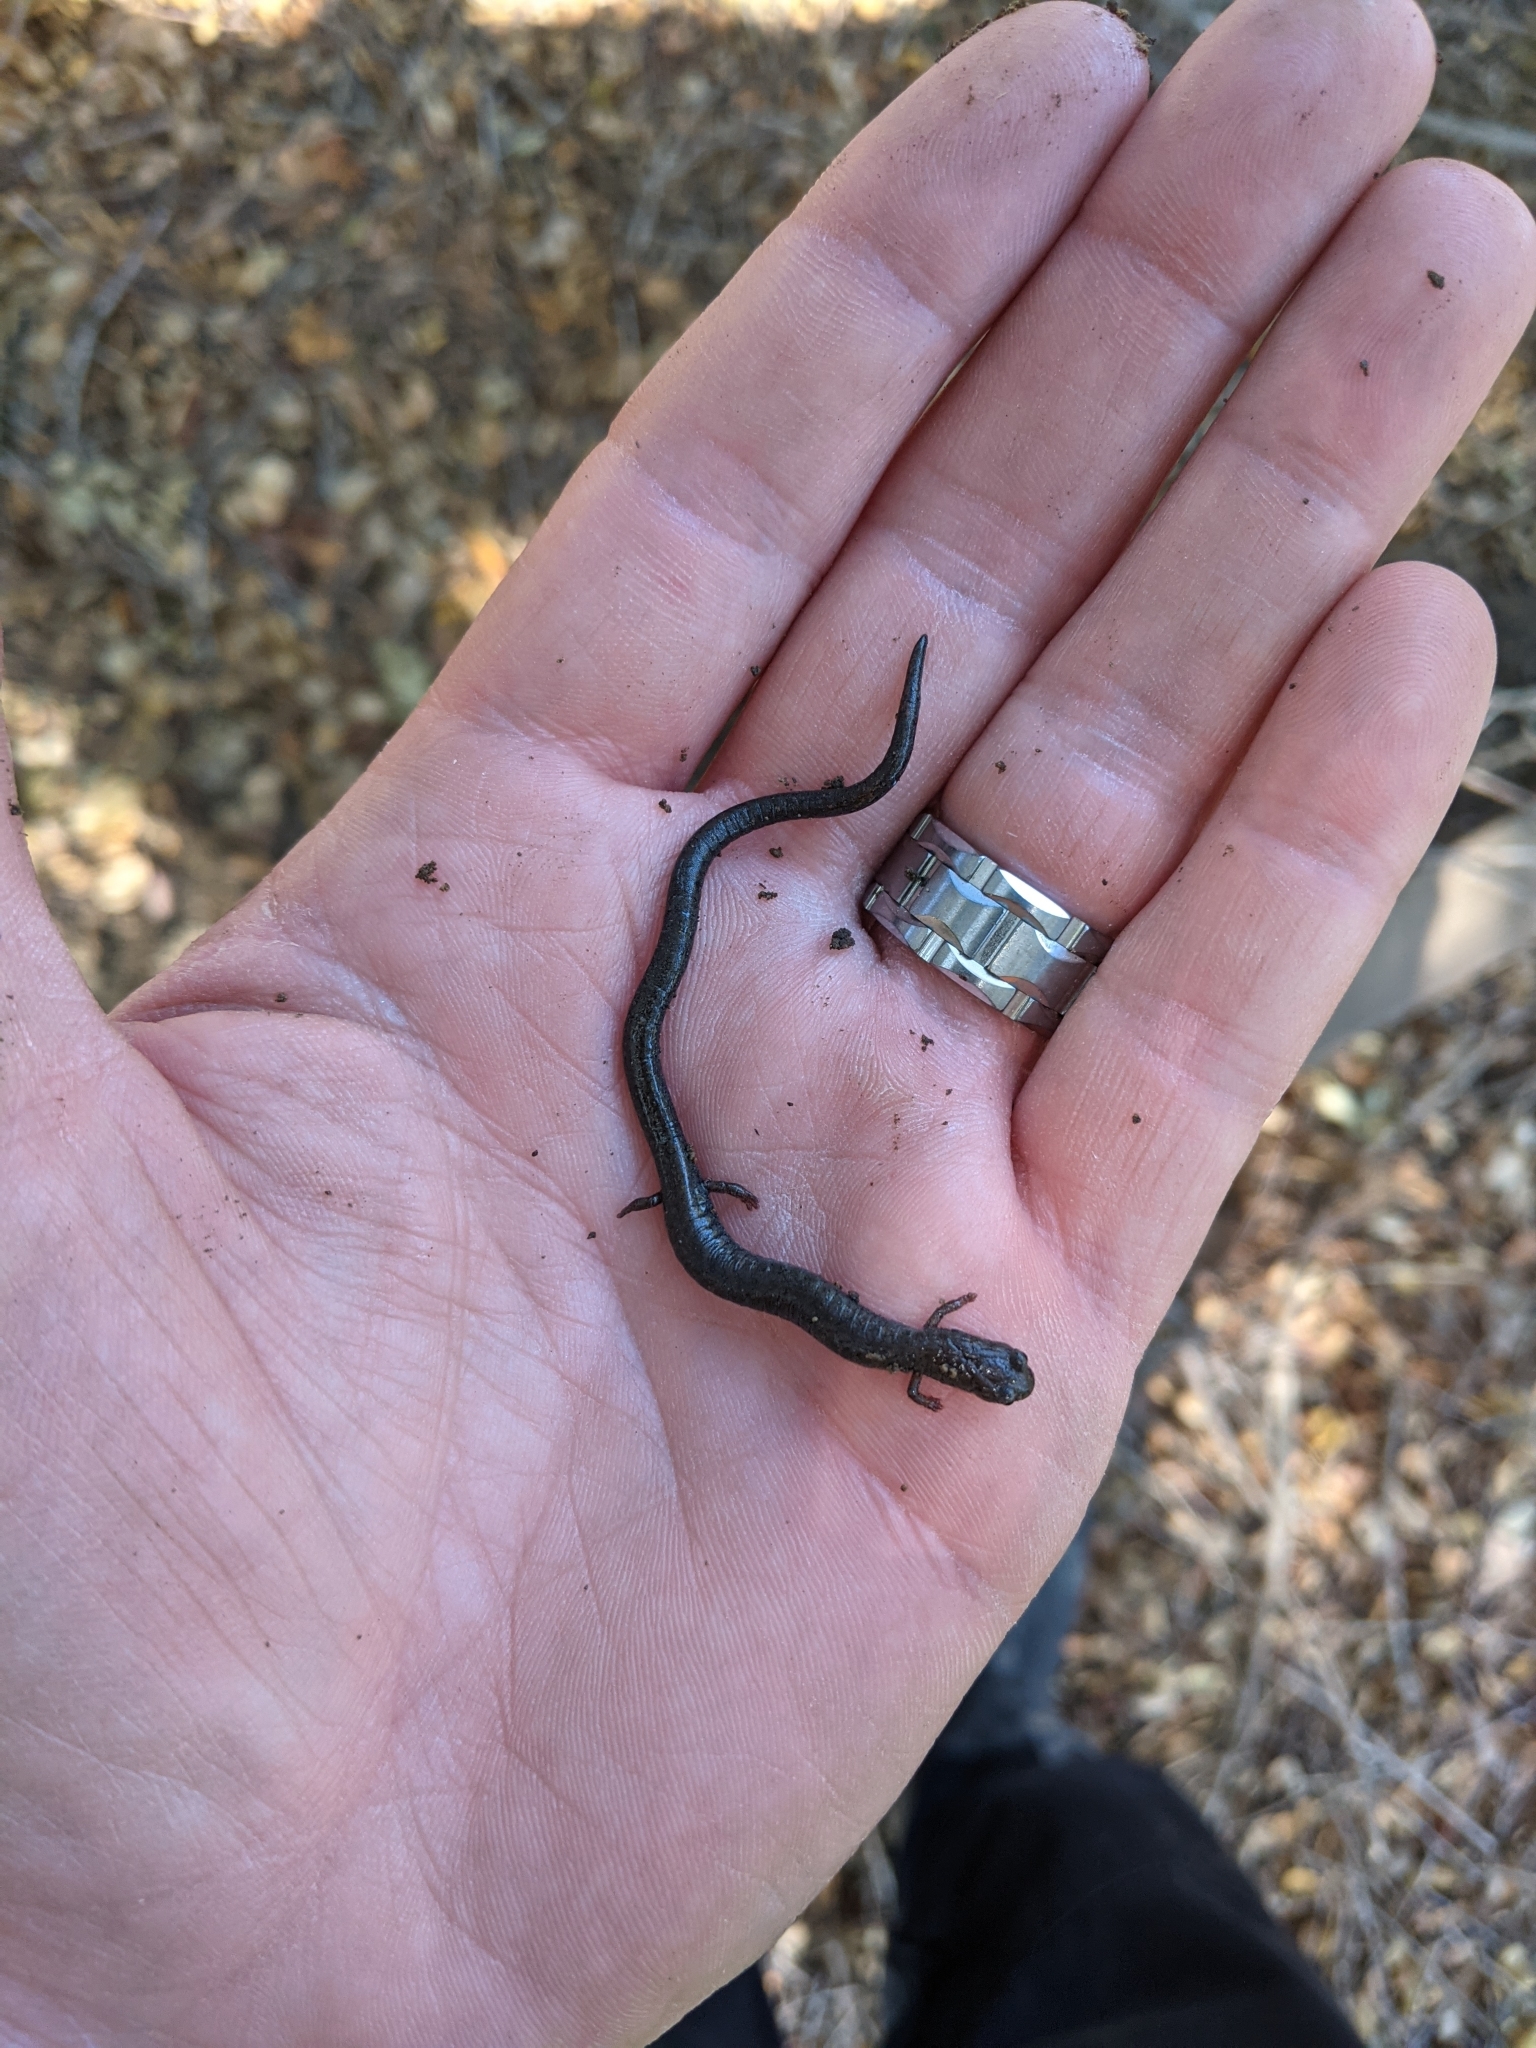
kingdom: Animalia
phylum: Chordata
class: Amphibia
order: Caudata
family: Plethodontidae
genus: Batrachoseps
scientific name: Batrachoseps nigriventris
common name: Black-bellied slender salamander
